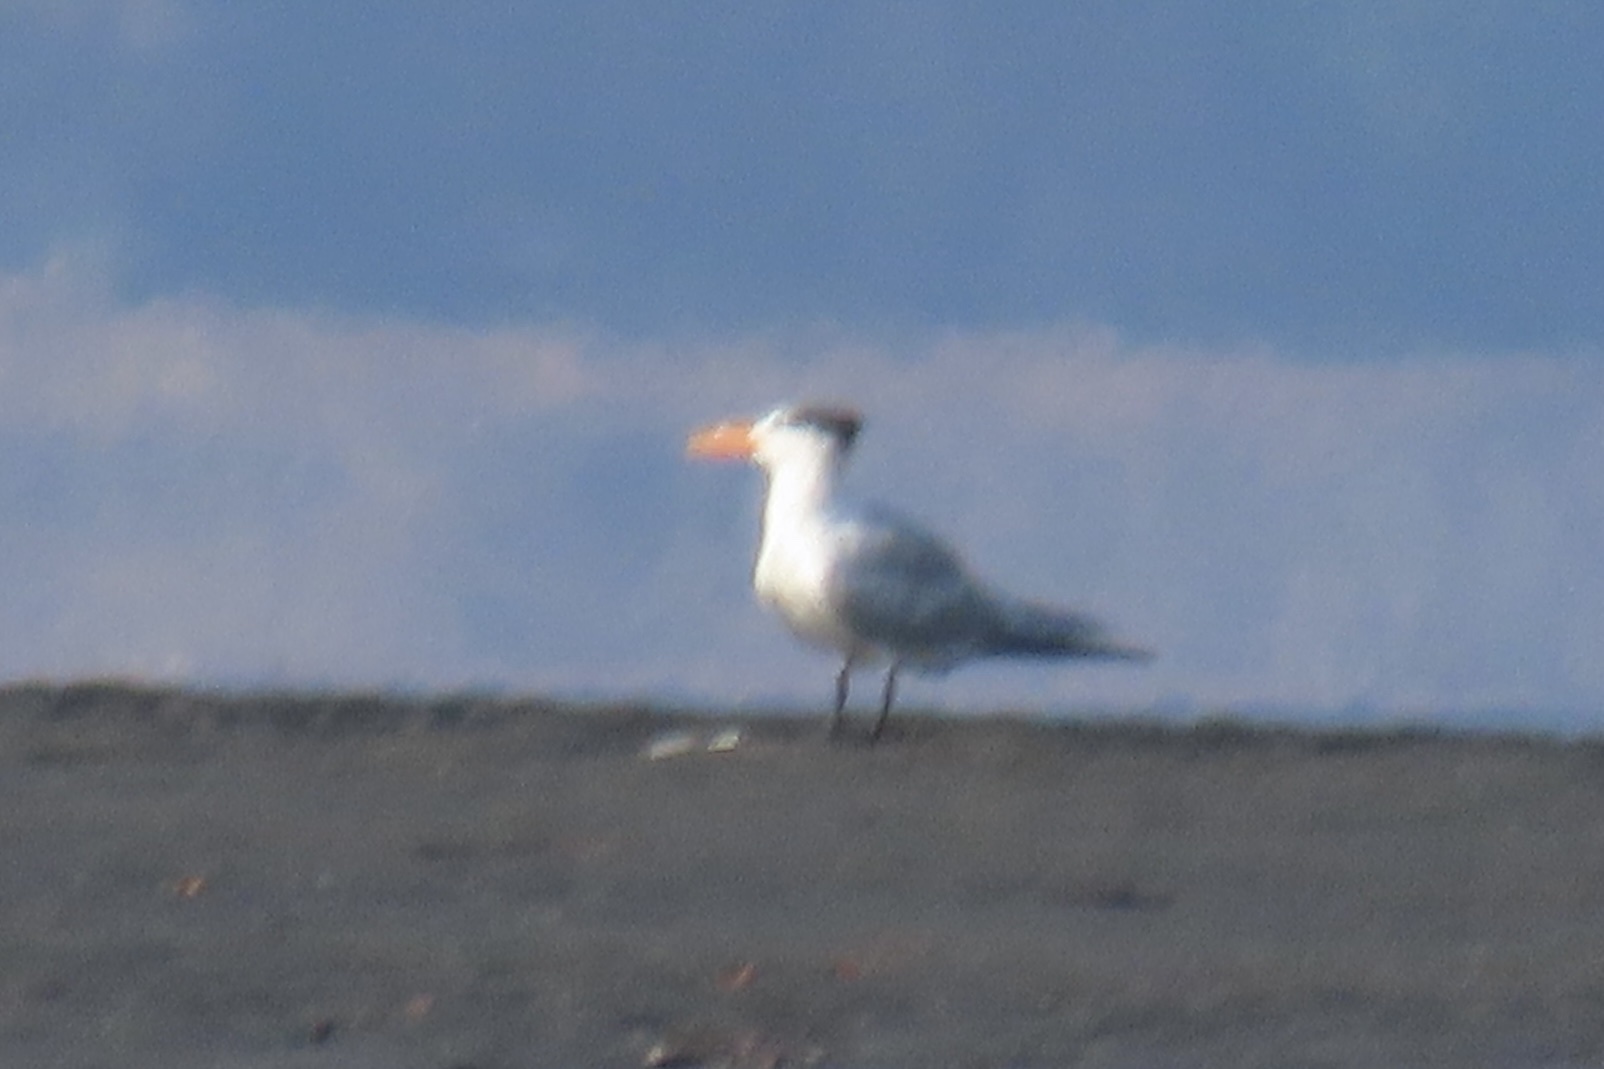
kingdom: Animalia
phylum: Chordata
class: Aves
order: Charadriiformes
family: Laridae
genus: Thalasseus
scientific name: Thalasseus maximus
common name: Royal tern
